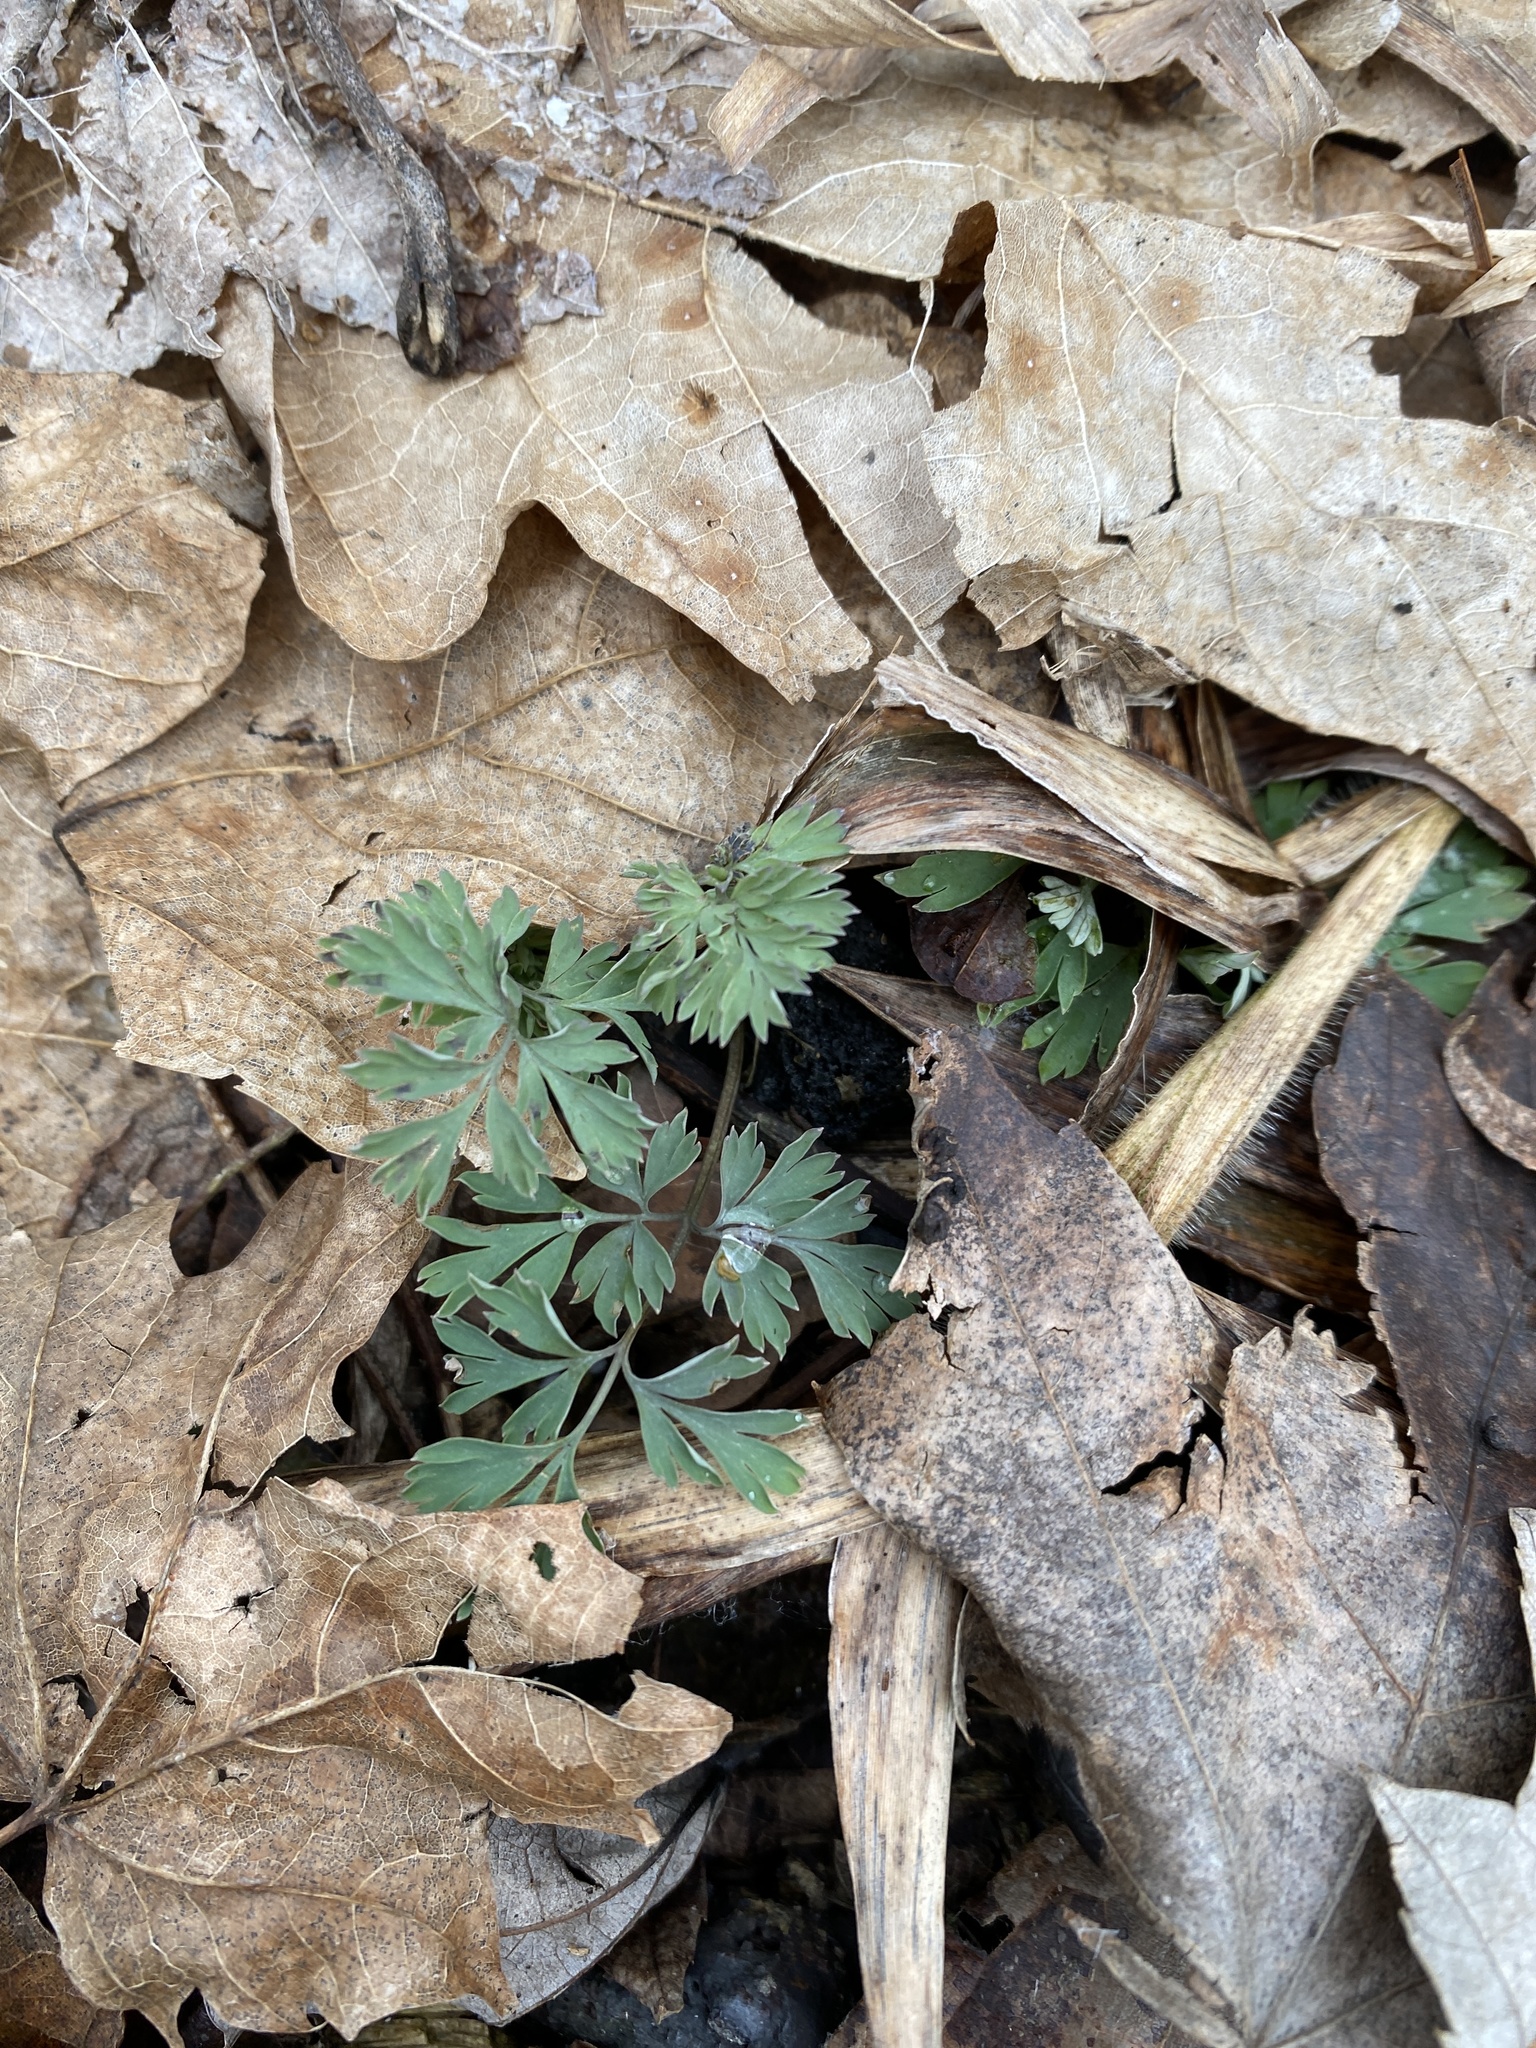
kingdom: Plantae
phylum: Tracheophyta
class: Magnoliopsida
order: Ranunculales
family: Papaveraceae
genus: Corydalis
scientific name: Corydalis flavula
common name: Yellow corydalis
